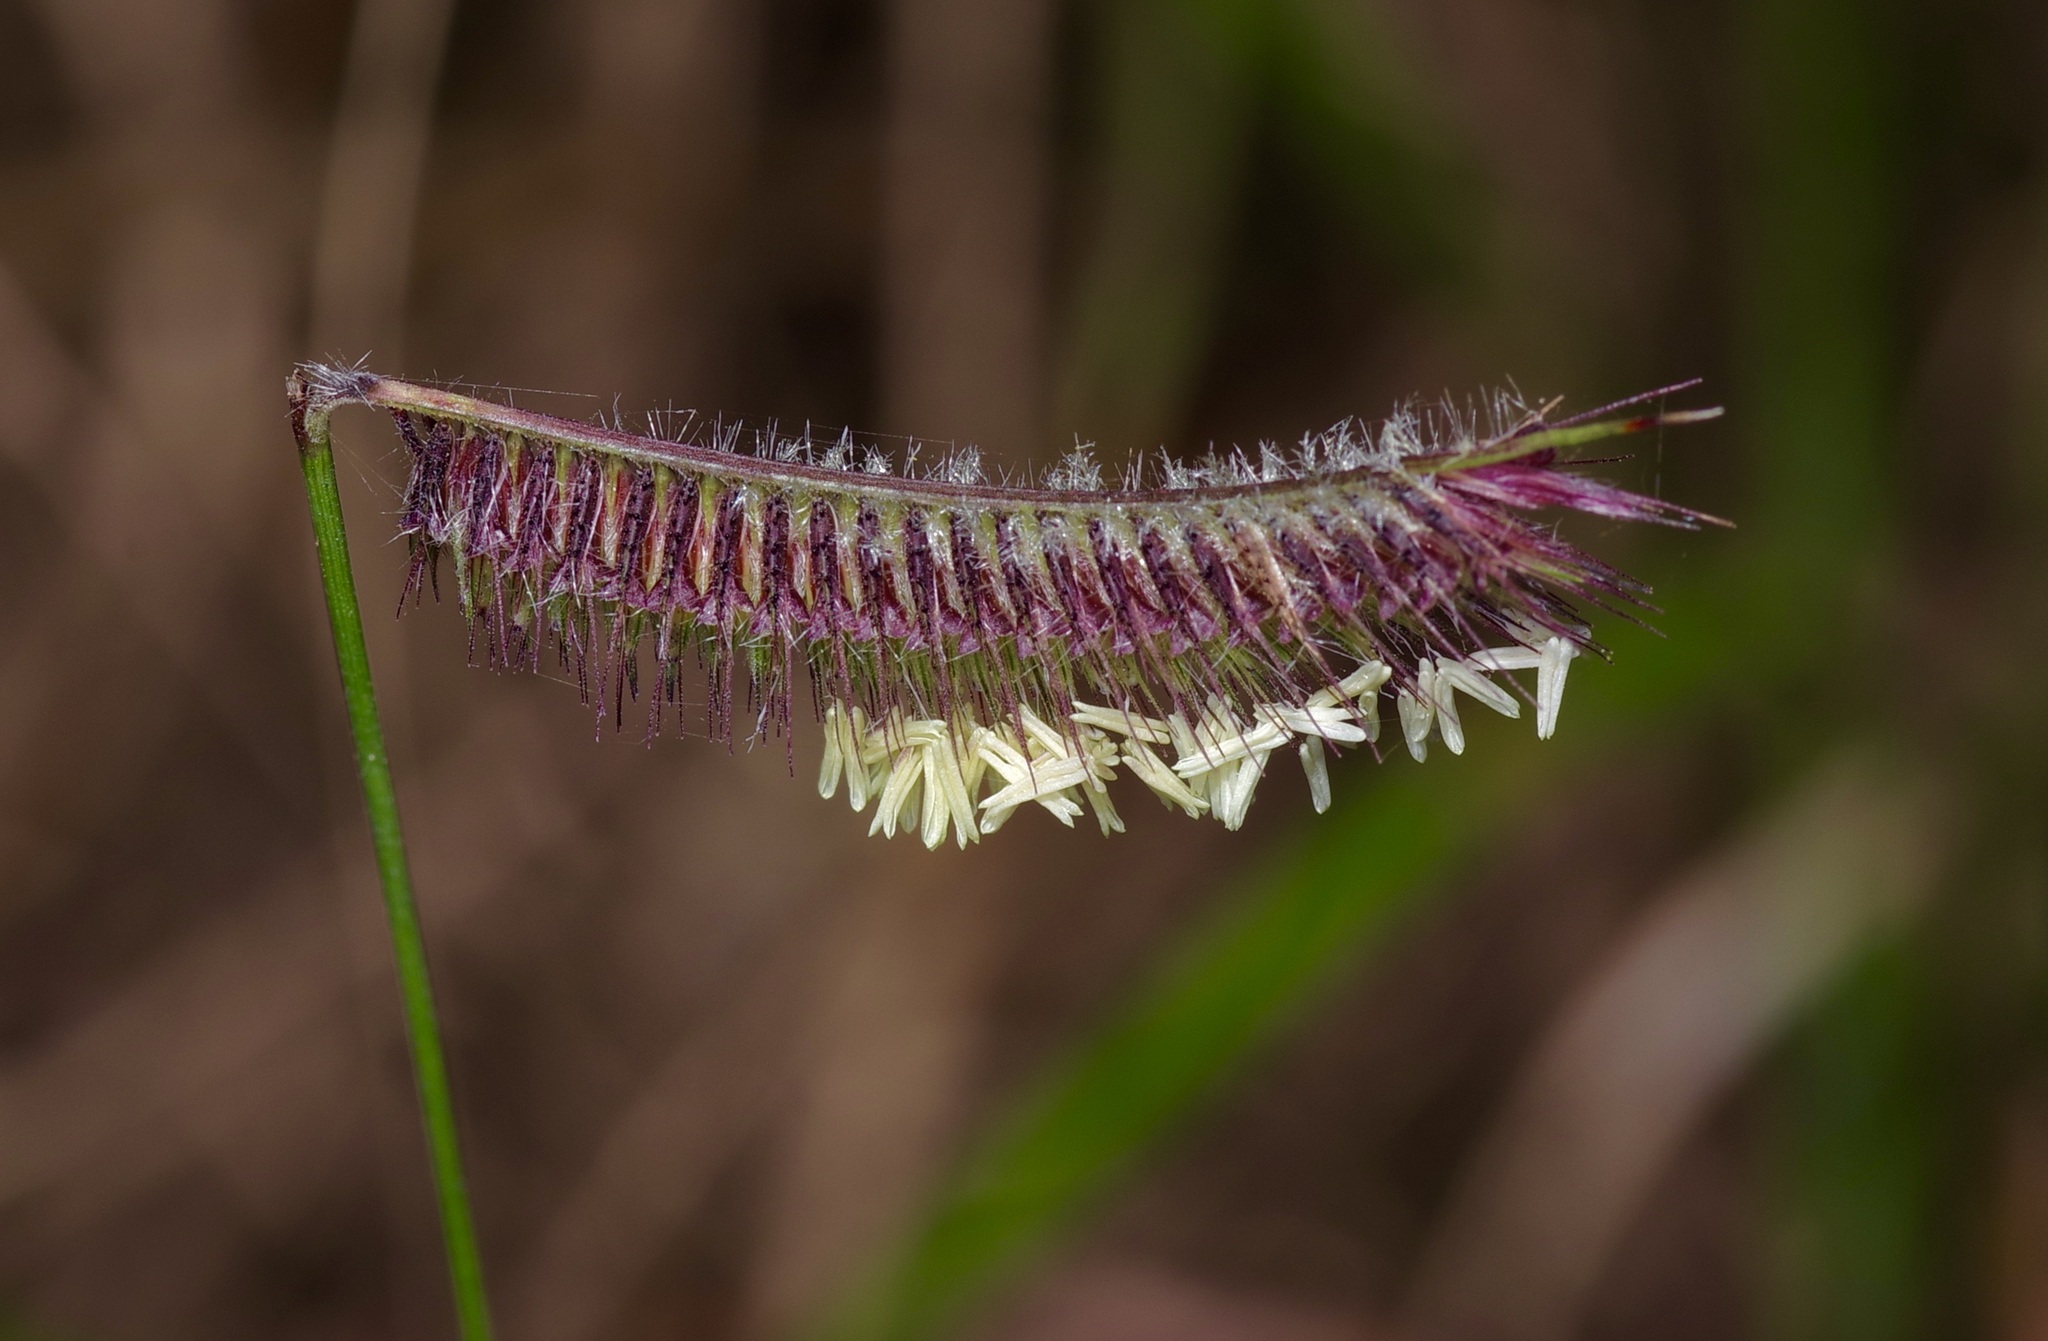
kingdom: Plantae
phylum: Tracheophyta
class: Liliopsida
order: Poales
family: Poaceae
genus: Bouteloua
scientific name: Bouteloua hirsuta
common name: Hairy grama
